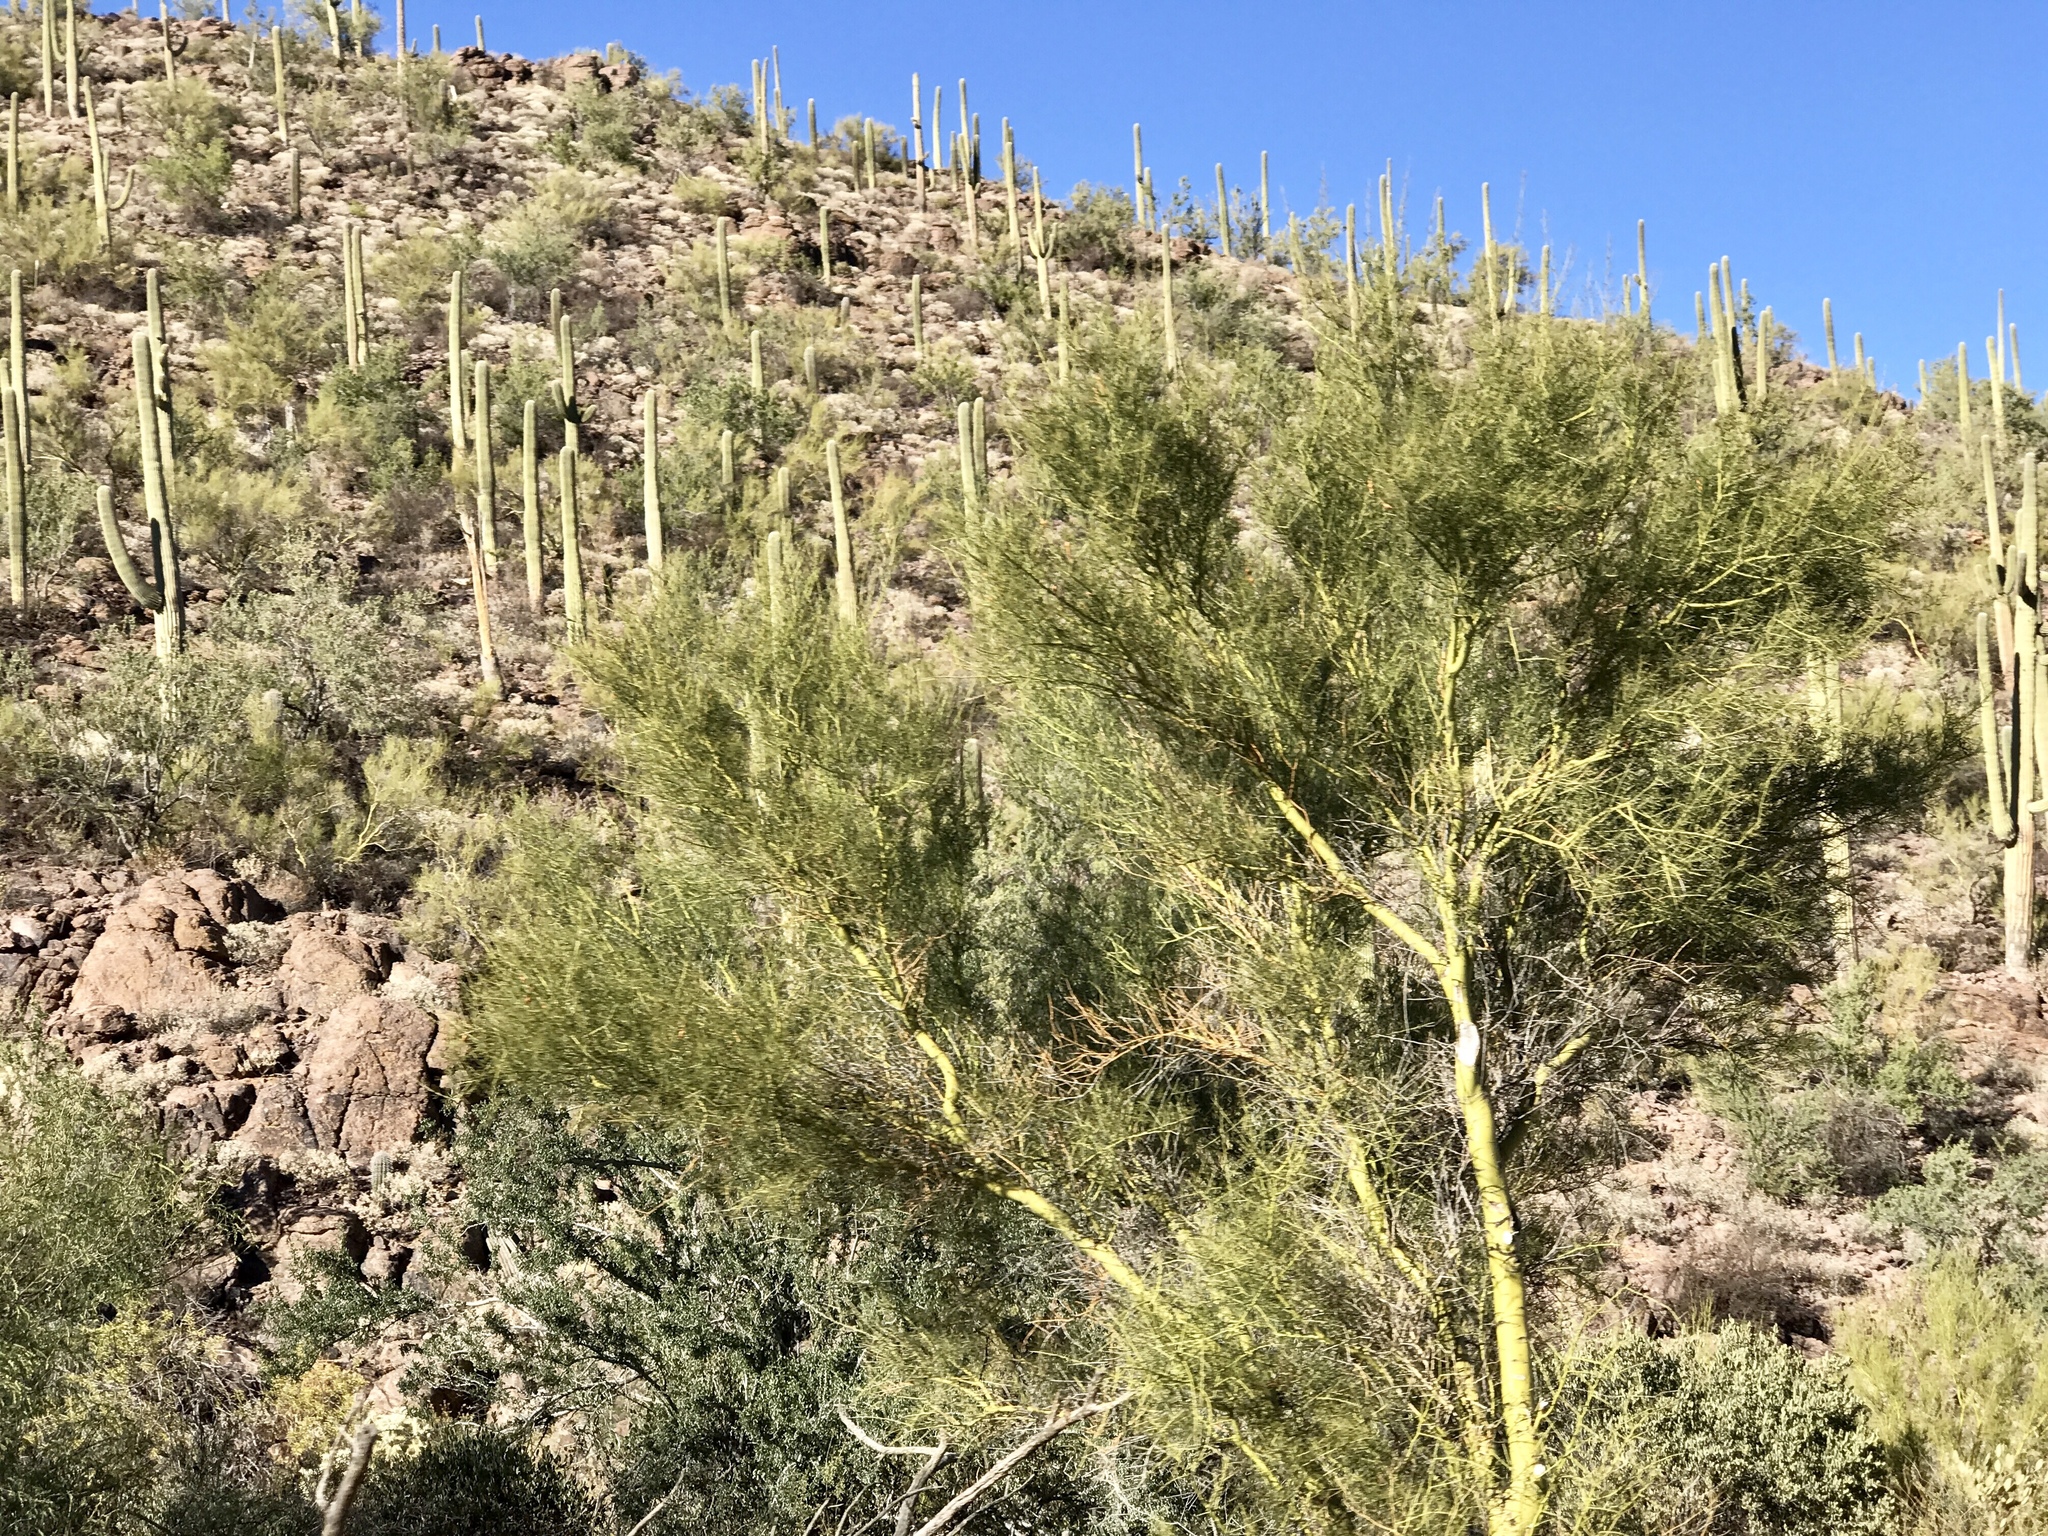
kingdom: Plantae
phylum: Tracheophyta
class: Magnoliopsida
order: Fabales
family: Fabaceae
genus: Parkinsonia
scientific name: Parkinsonia microphylla
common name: Yellow paloverde
